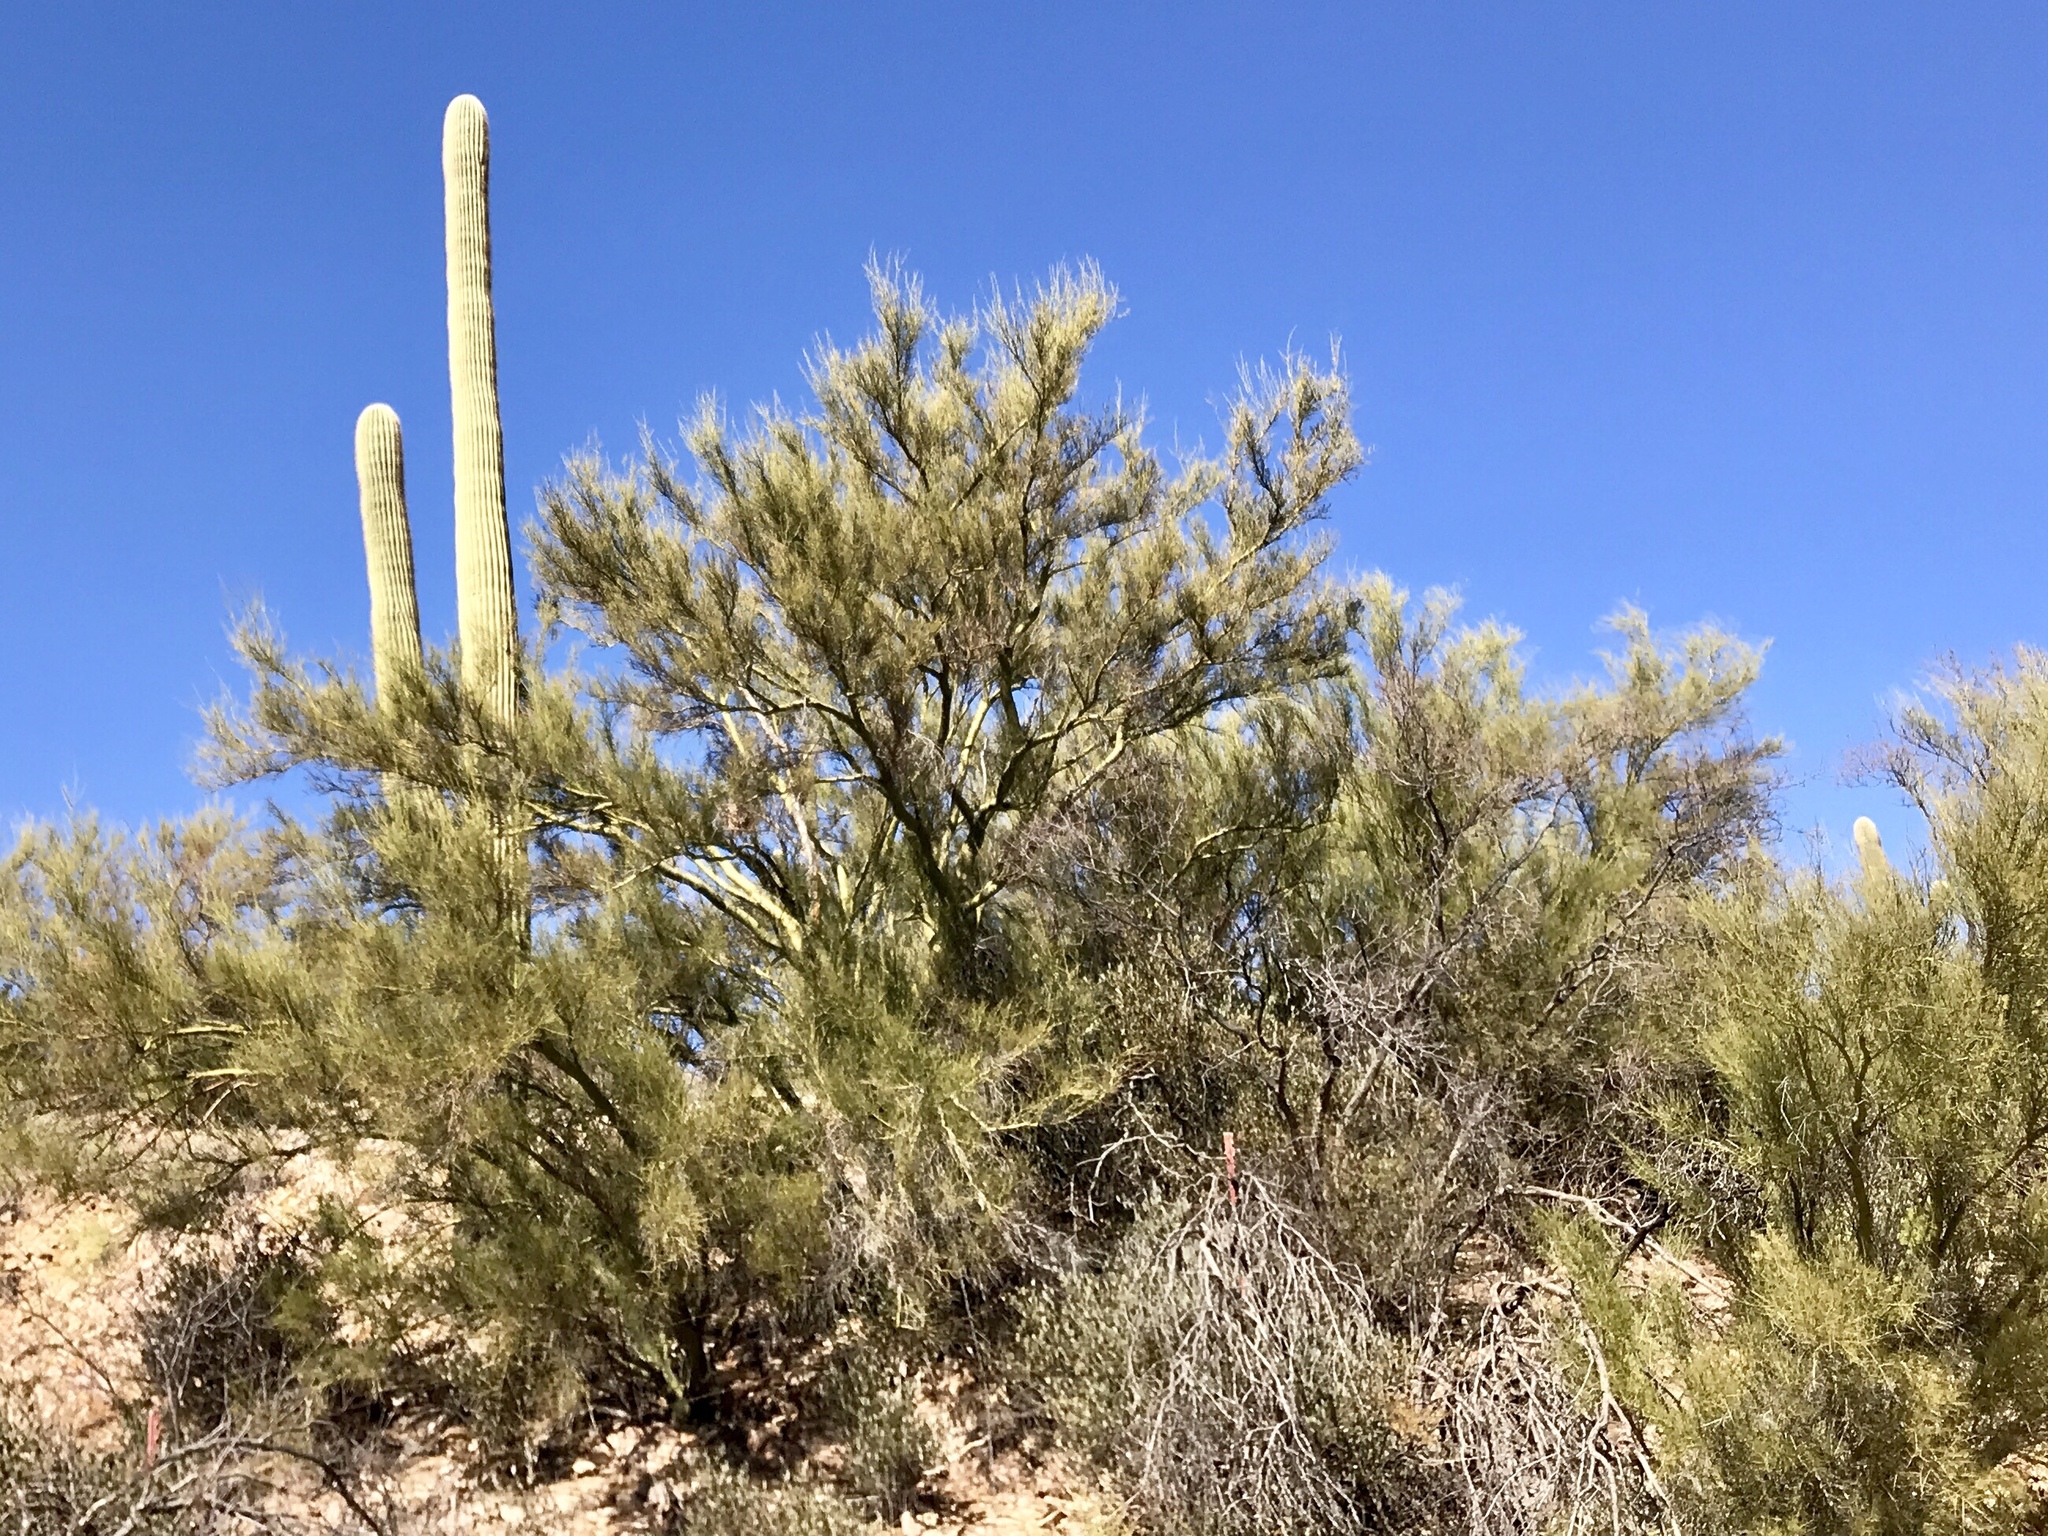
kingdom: Plantae
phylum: Tracheophyta
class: Magnoliopsida
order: Fabales
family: Fabaceae
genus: Parkinsonia
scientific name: Parkinsonia microphylla
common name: Yellow paloverde
